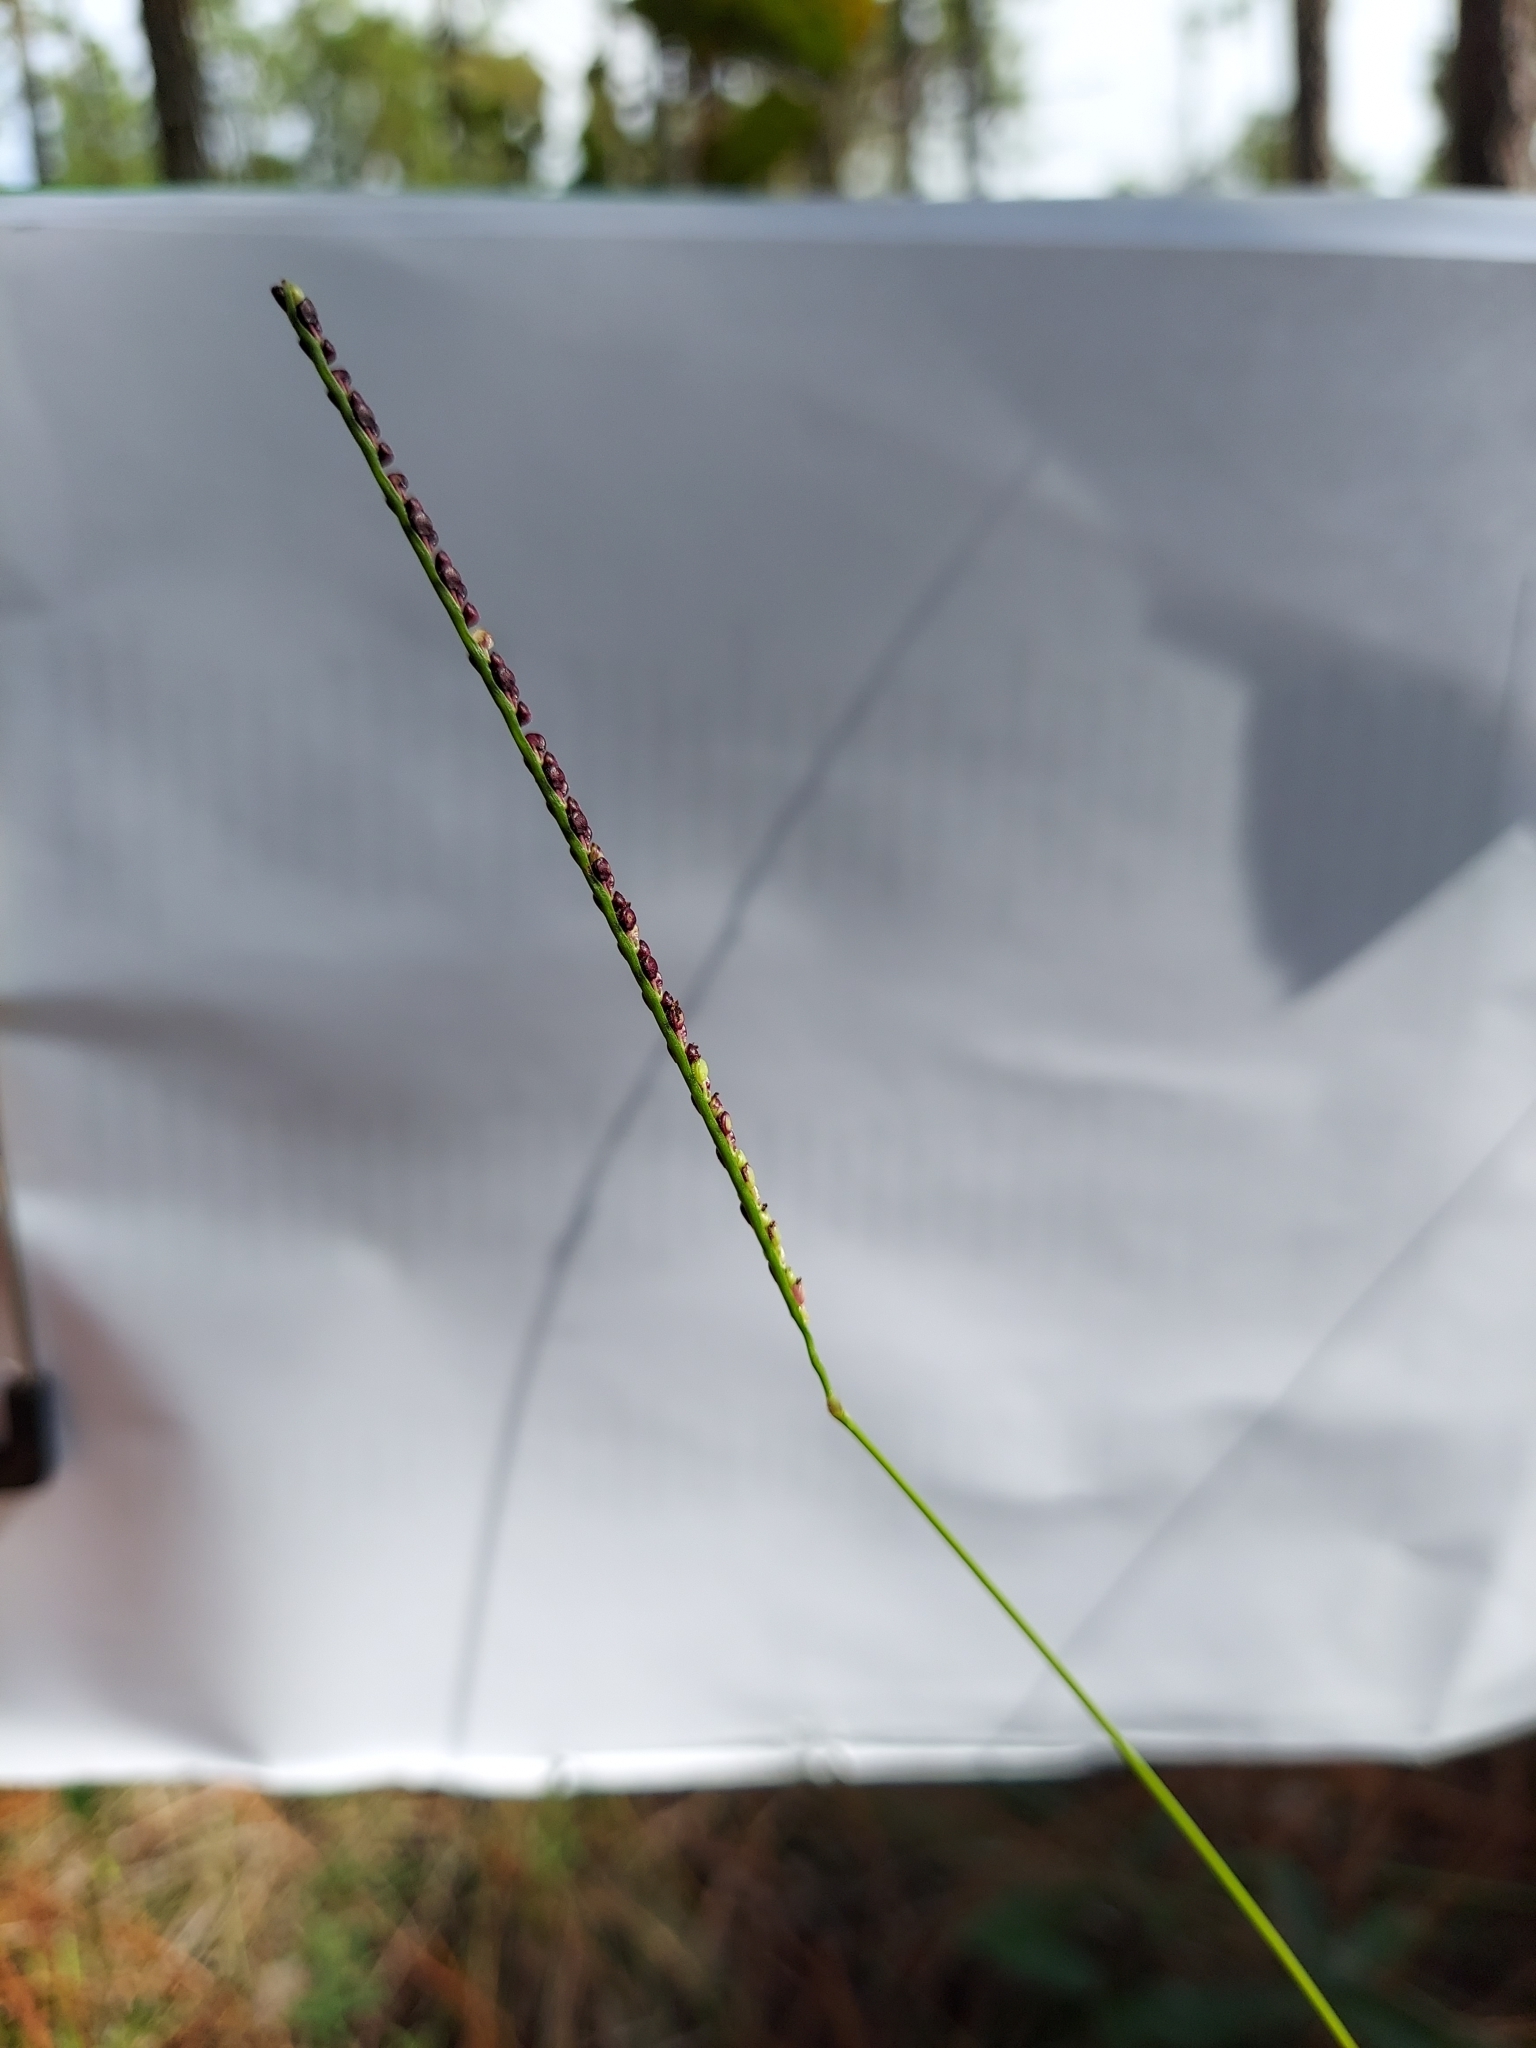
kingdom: Plantae
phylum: Tracheophyta
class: Liliopsida
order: Poales
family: Poaceae
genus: Paspalum
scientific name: Paspalum setaceum
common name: Slender paspalum
